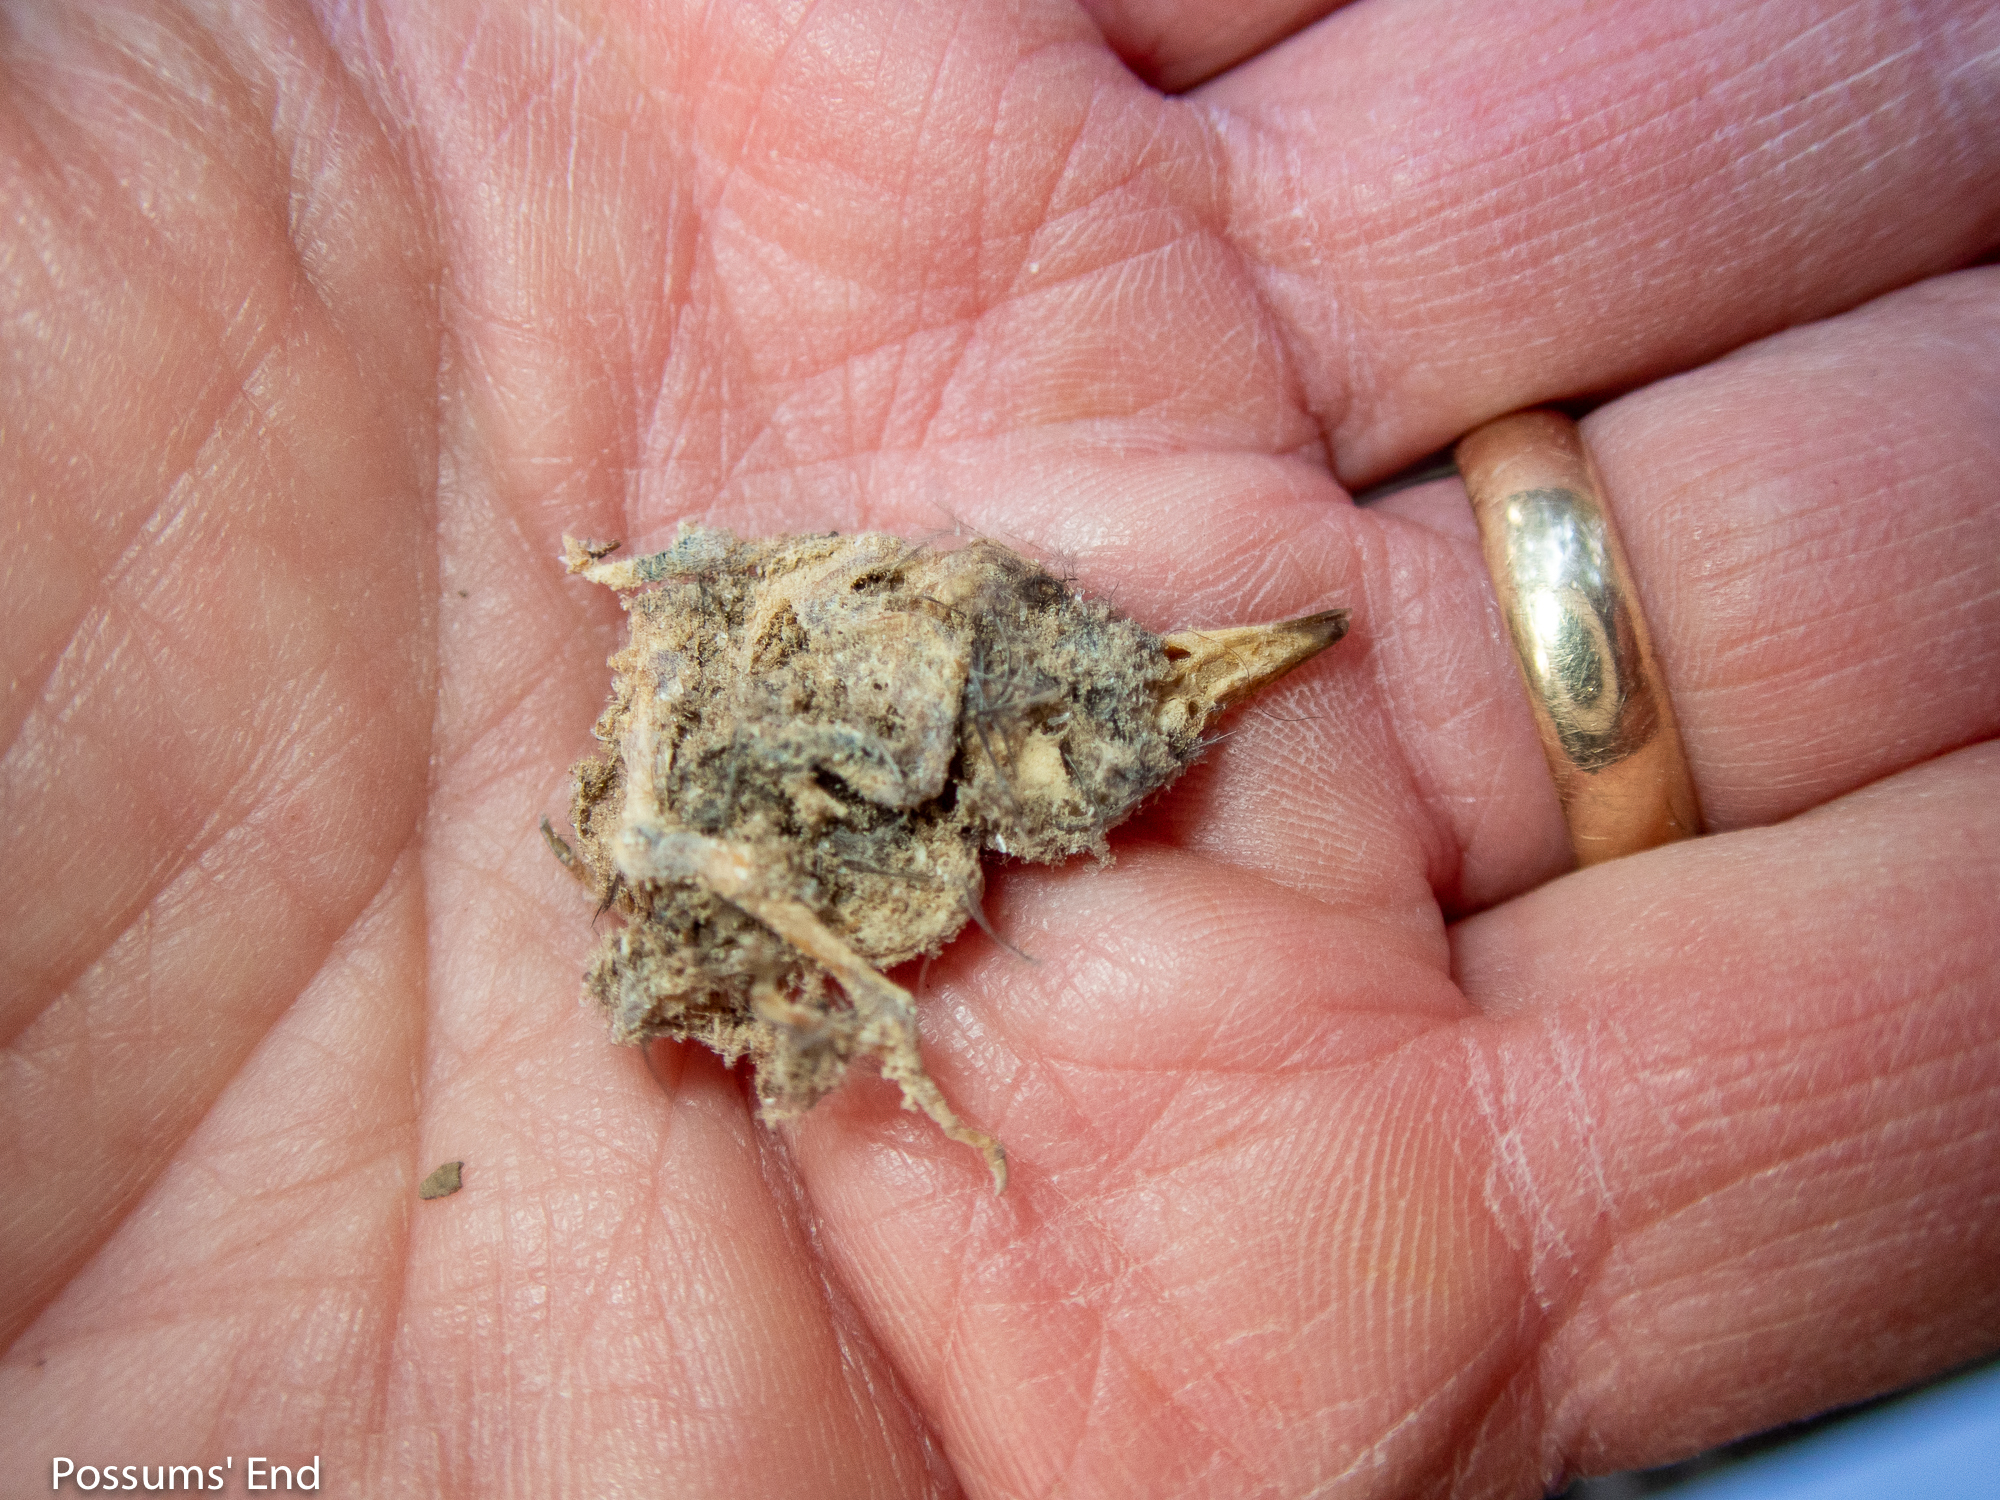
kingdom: Animalia
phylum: Chordata
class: Aves
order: Passeriformes
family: Acanthisittidae
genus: Acanthisitta
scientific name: Acanthisitta chloris
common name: Rifleman
